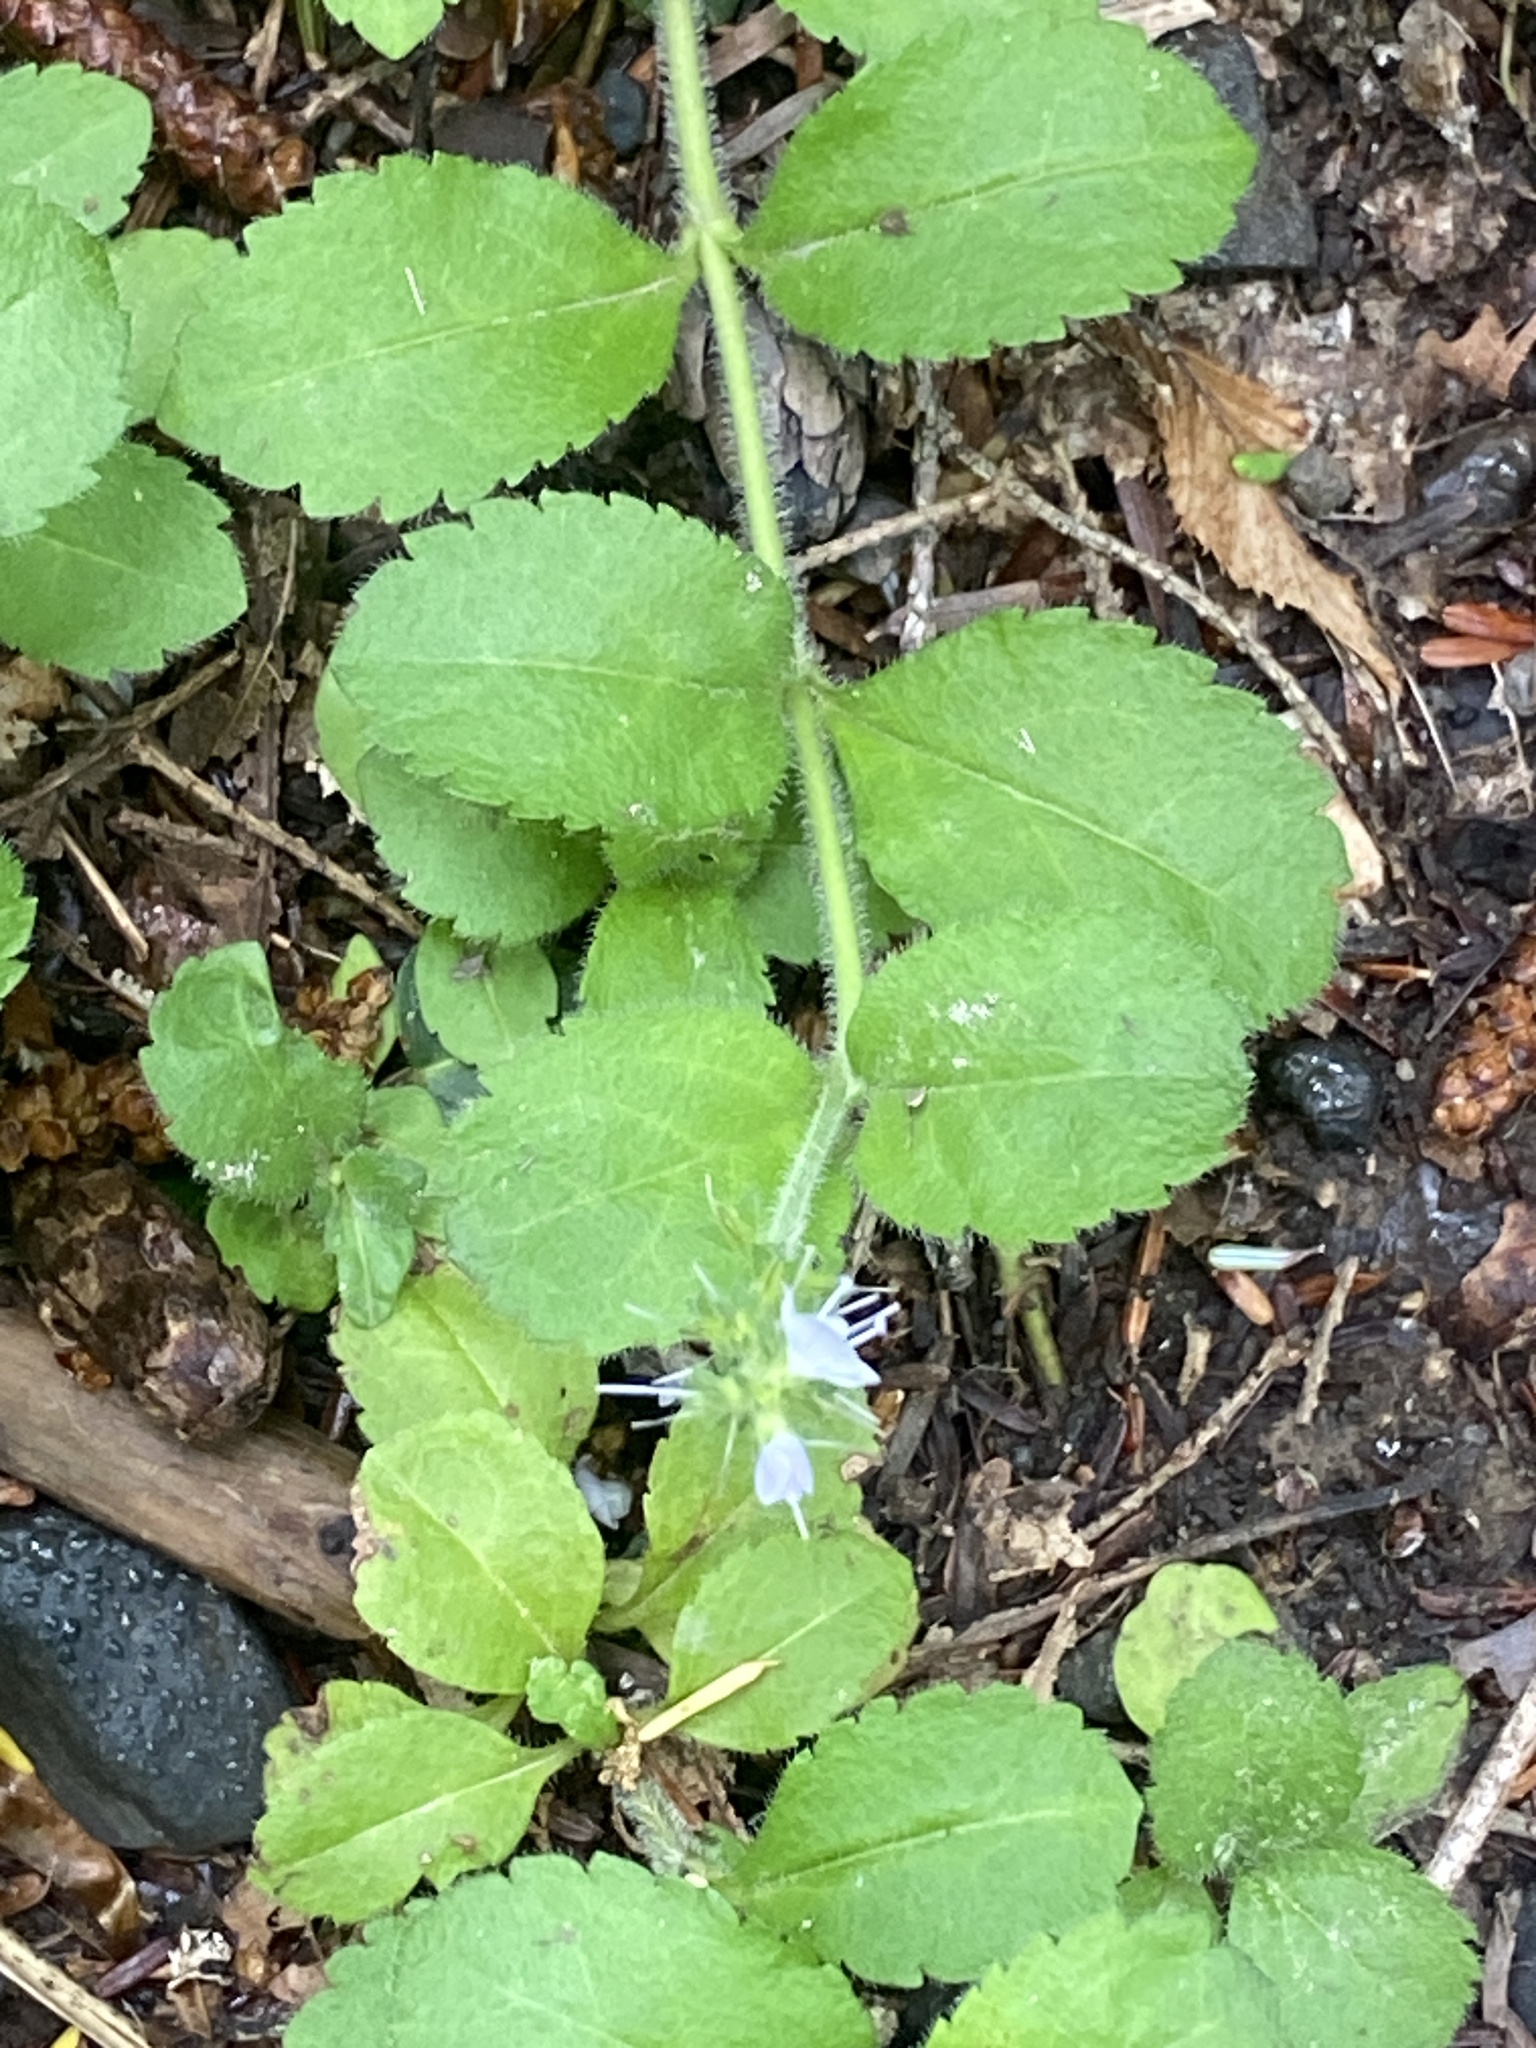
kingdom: Plantae
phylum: Tracheophyta
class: Magnoliopsida
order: Lamiales
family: Plantaginaceae
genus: Veronica
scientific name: Veronica officinalis
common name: Common speedwell
